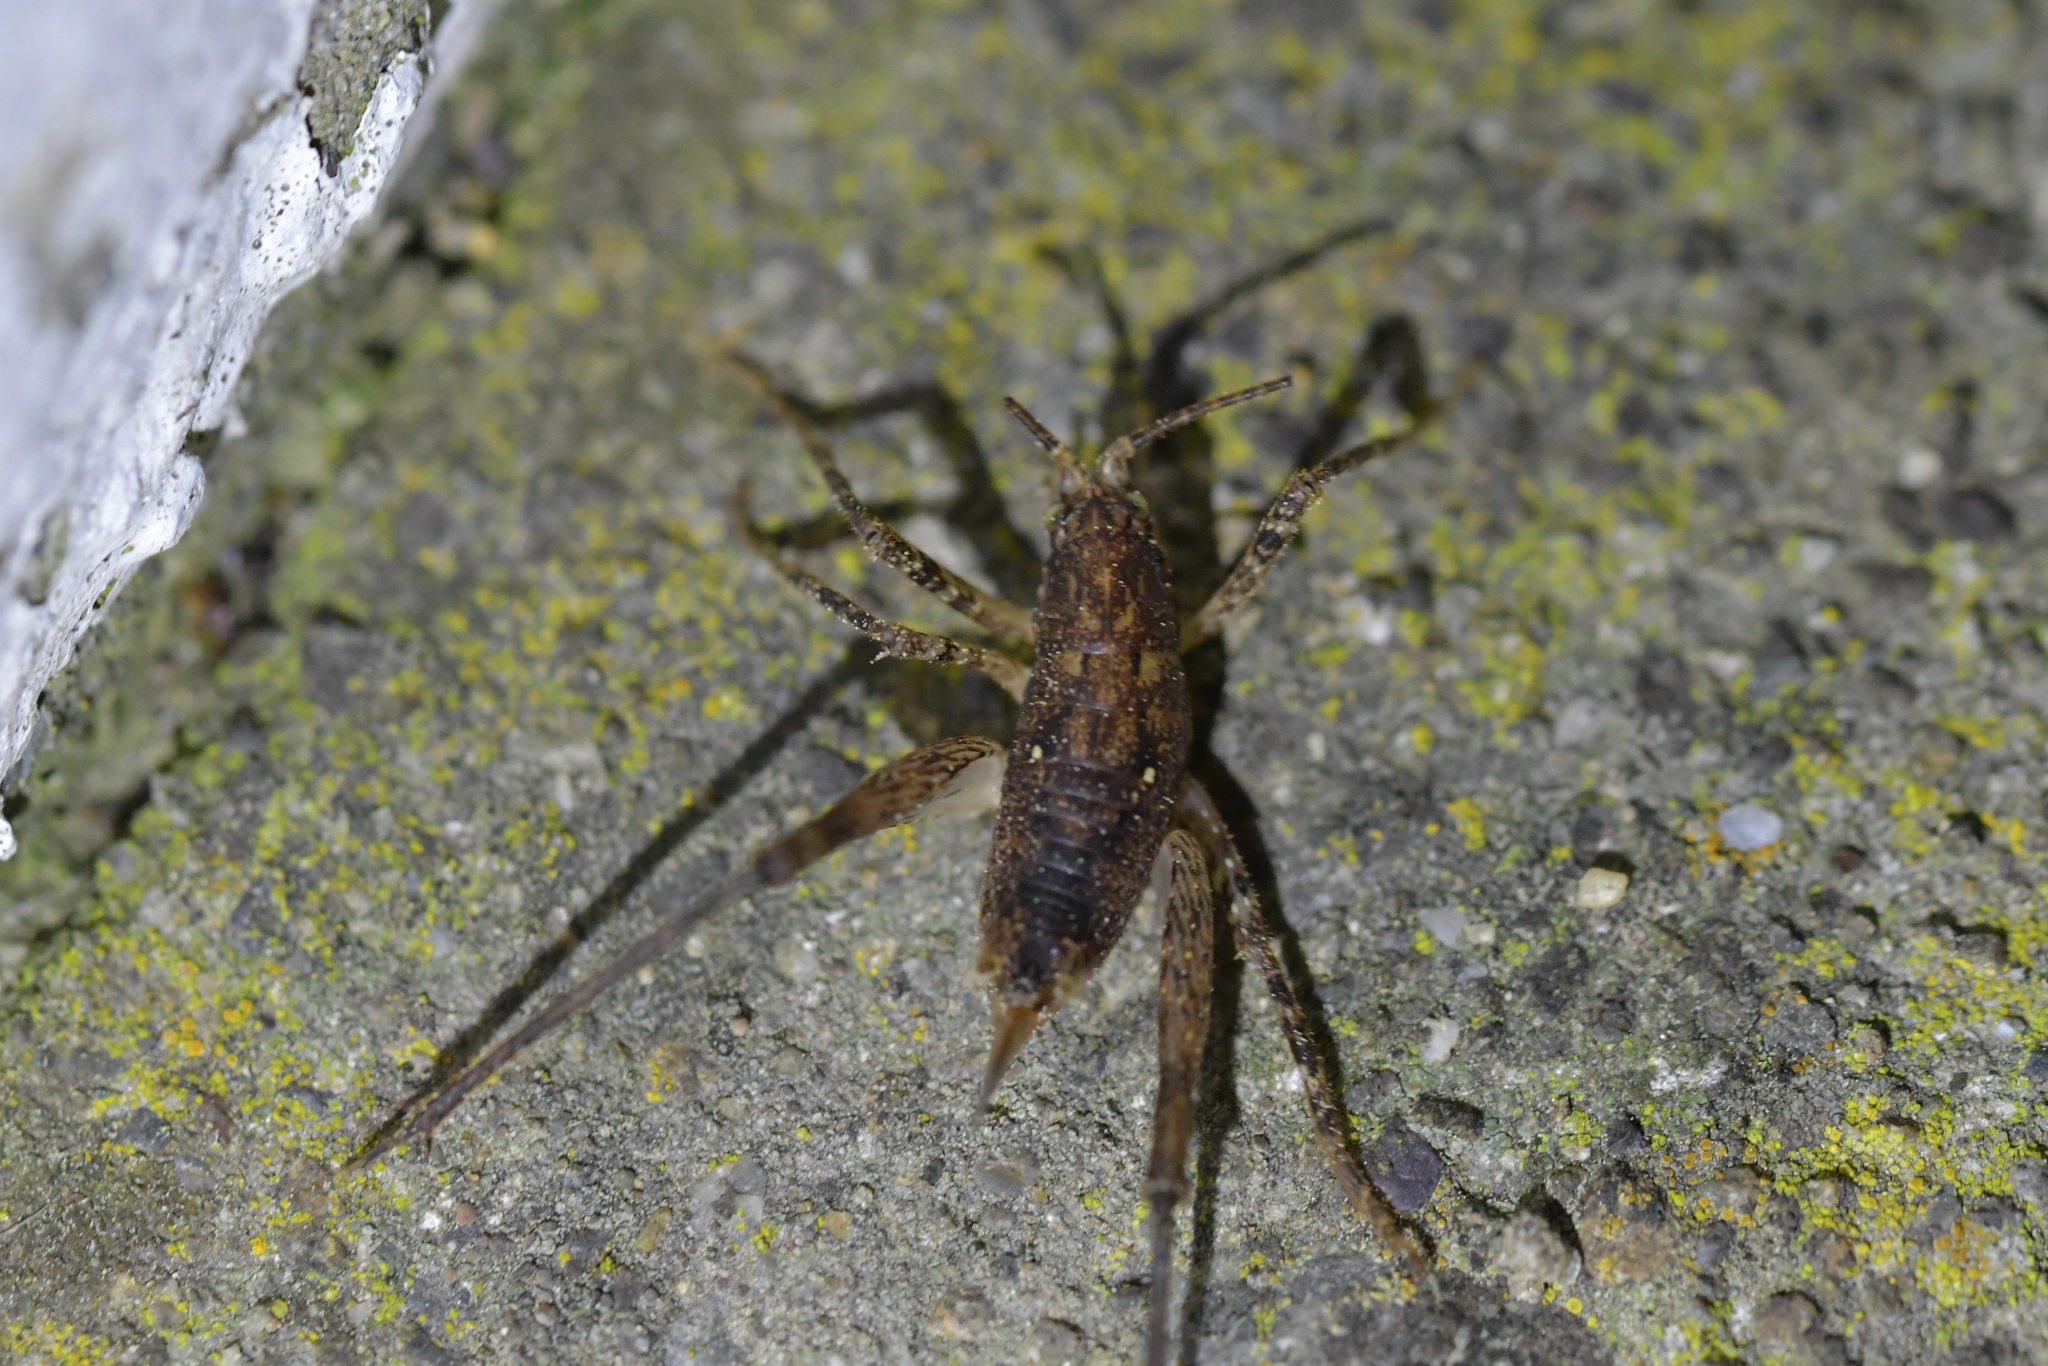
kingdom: Animalia
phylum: Arthropoda
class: Insecta
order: Orthoptera
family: Rhaphidophoridae
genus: Isoplectron
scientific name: Isoplectron armatum
